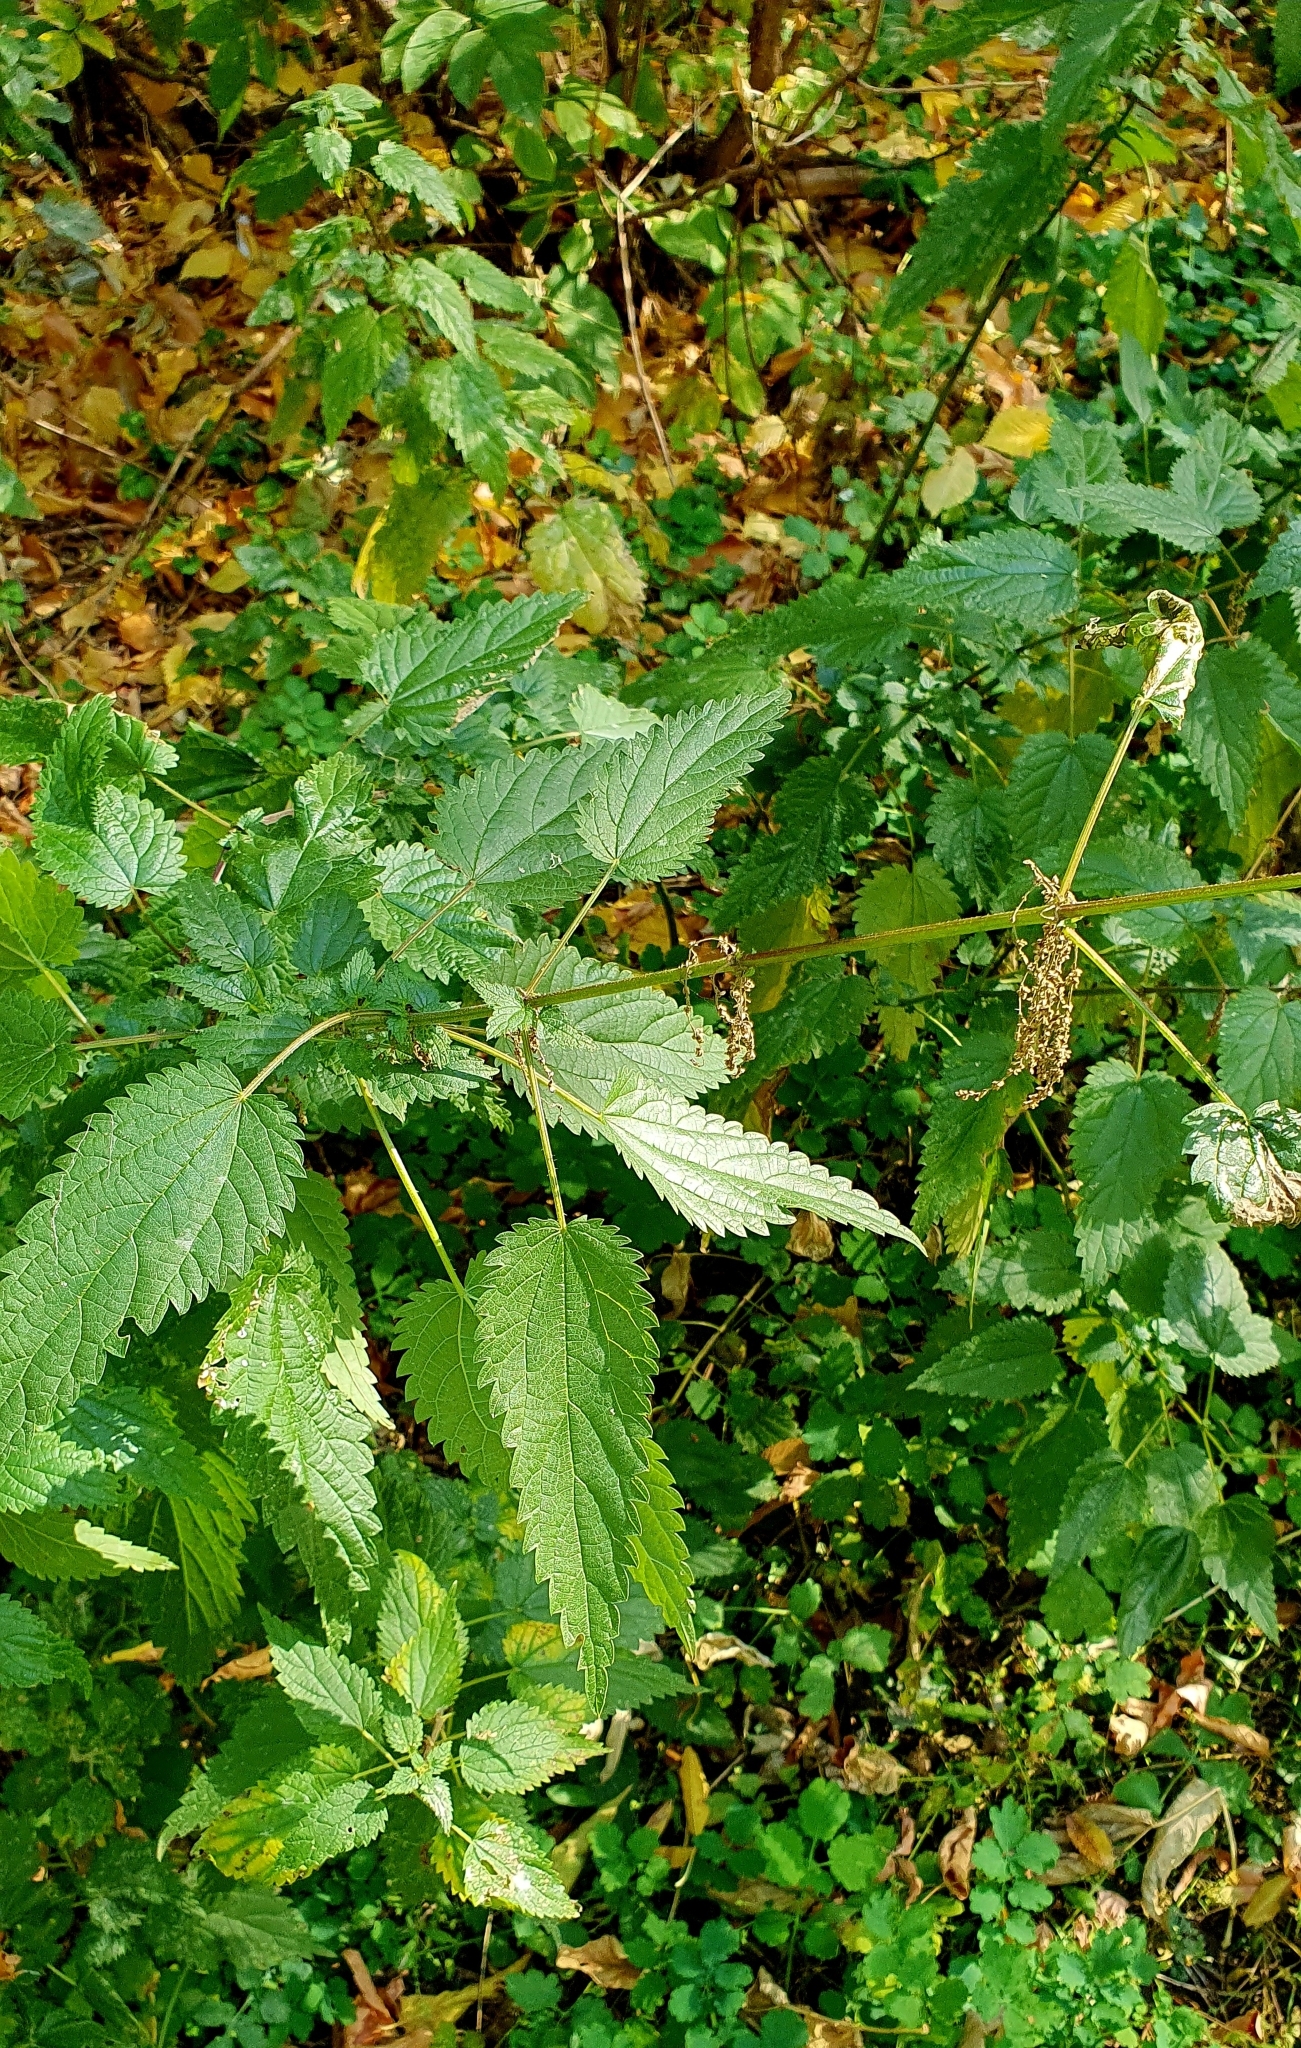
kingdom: Plantae
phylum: Tracheophyta
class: Magnoliopsida
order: Rosales
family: Urticaceae
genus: Urtica
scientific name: Urtica dioica
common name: Common nettle
